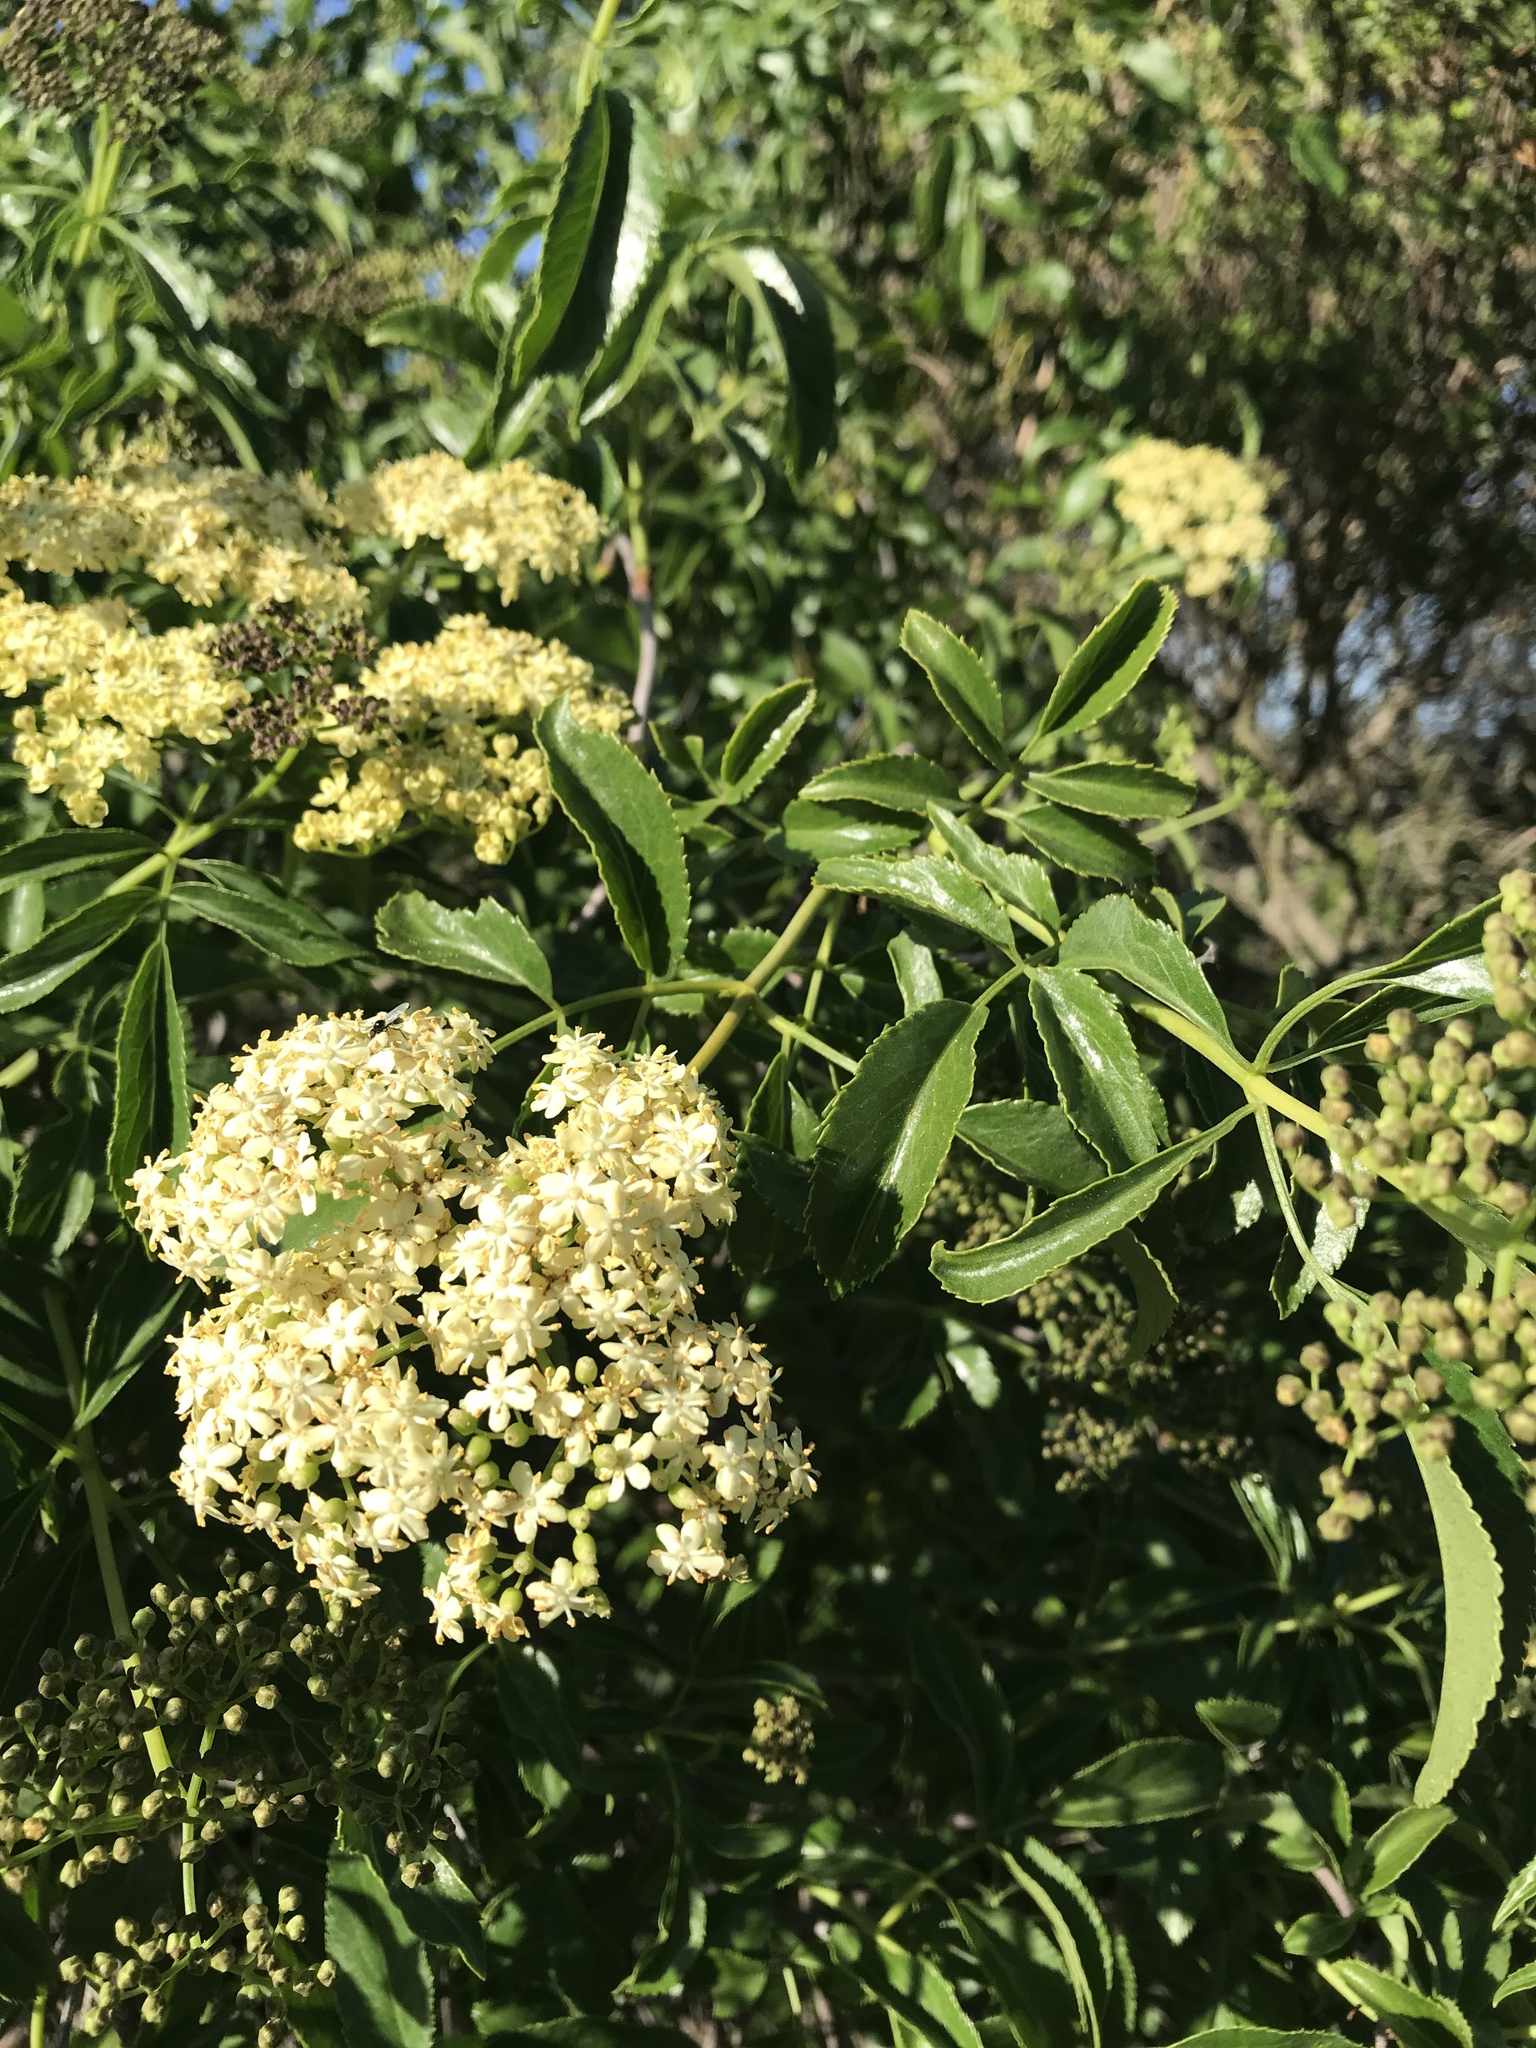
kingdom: Plantae
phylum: Tracheophyta
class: Magnoliopsida
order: Dipsacales
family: Viburnaceae
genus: Sambucus
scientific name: Sambucus cerulea
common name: Blue elder
